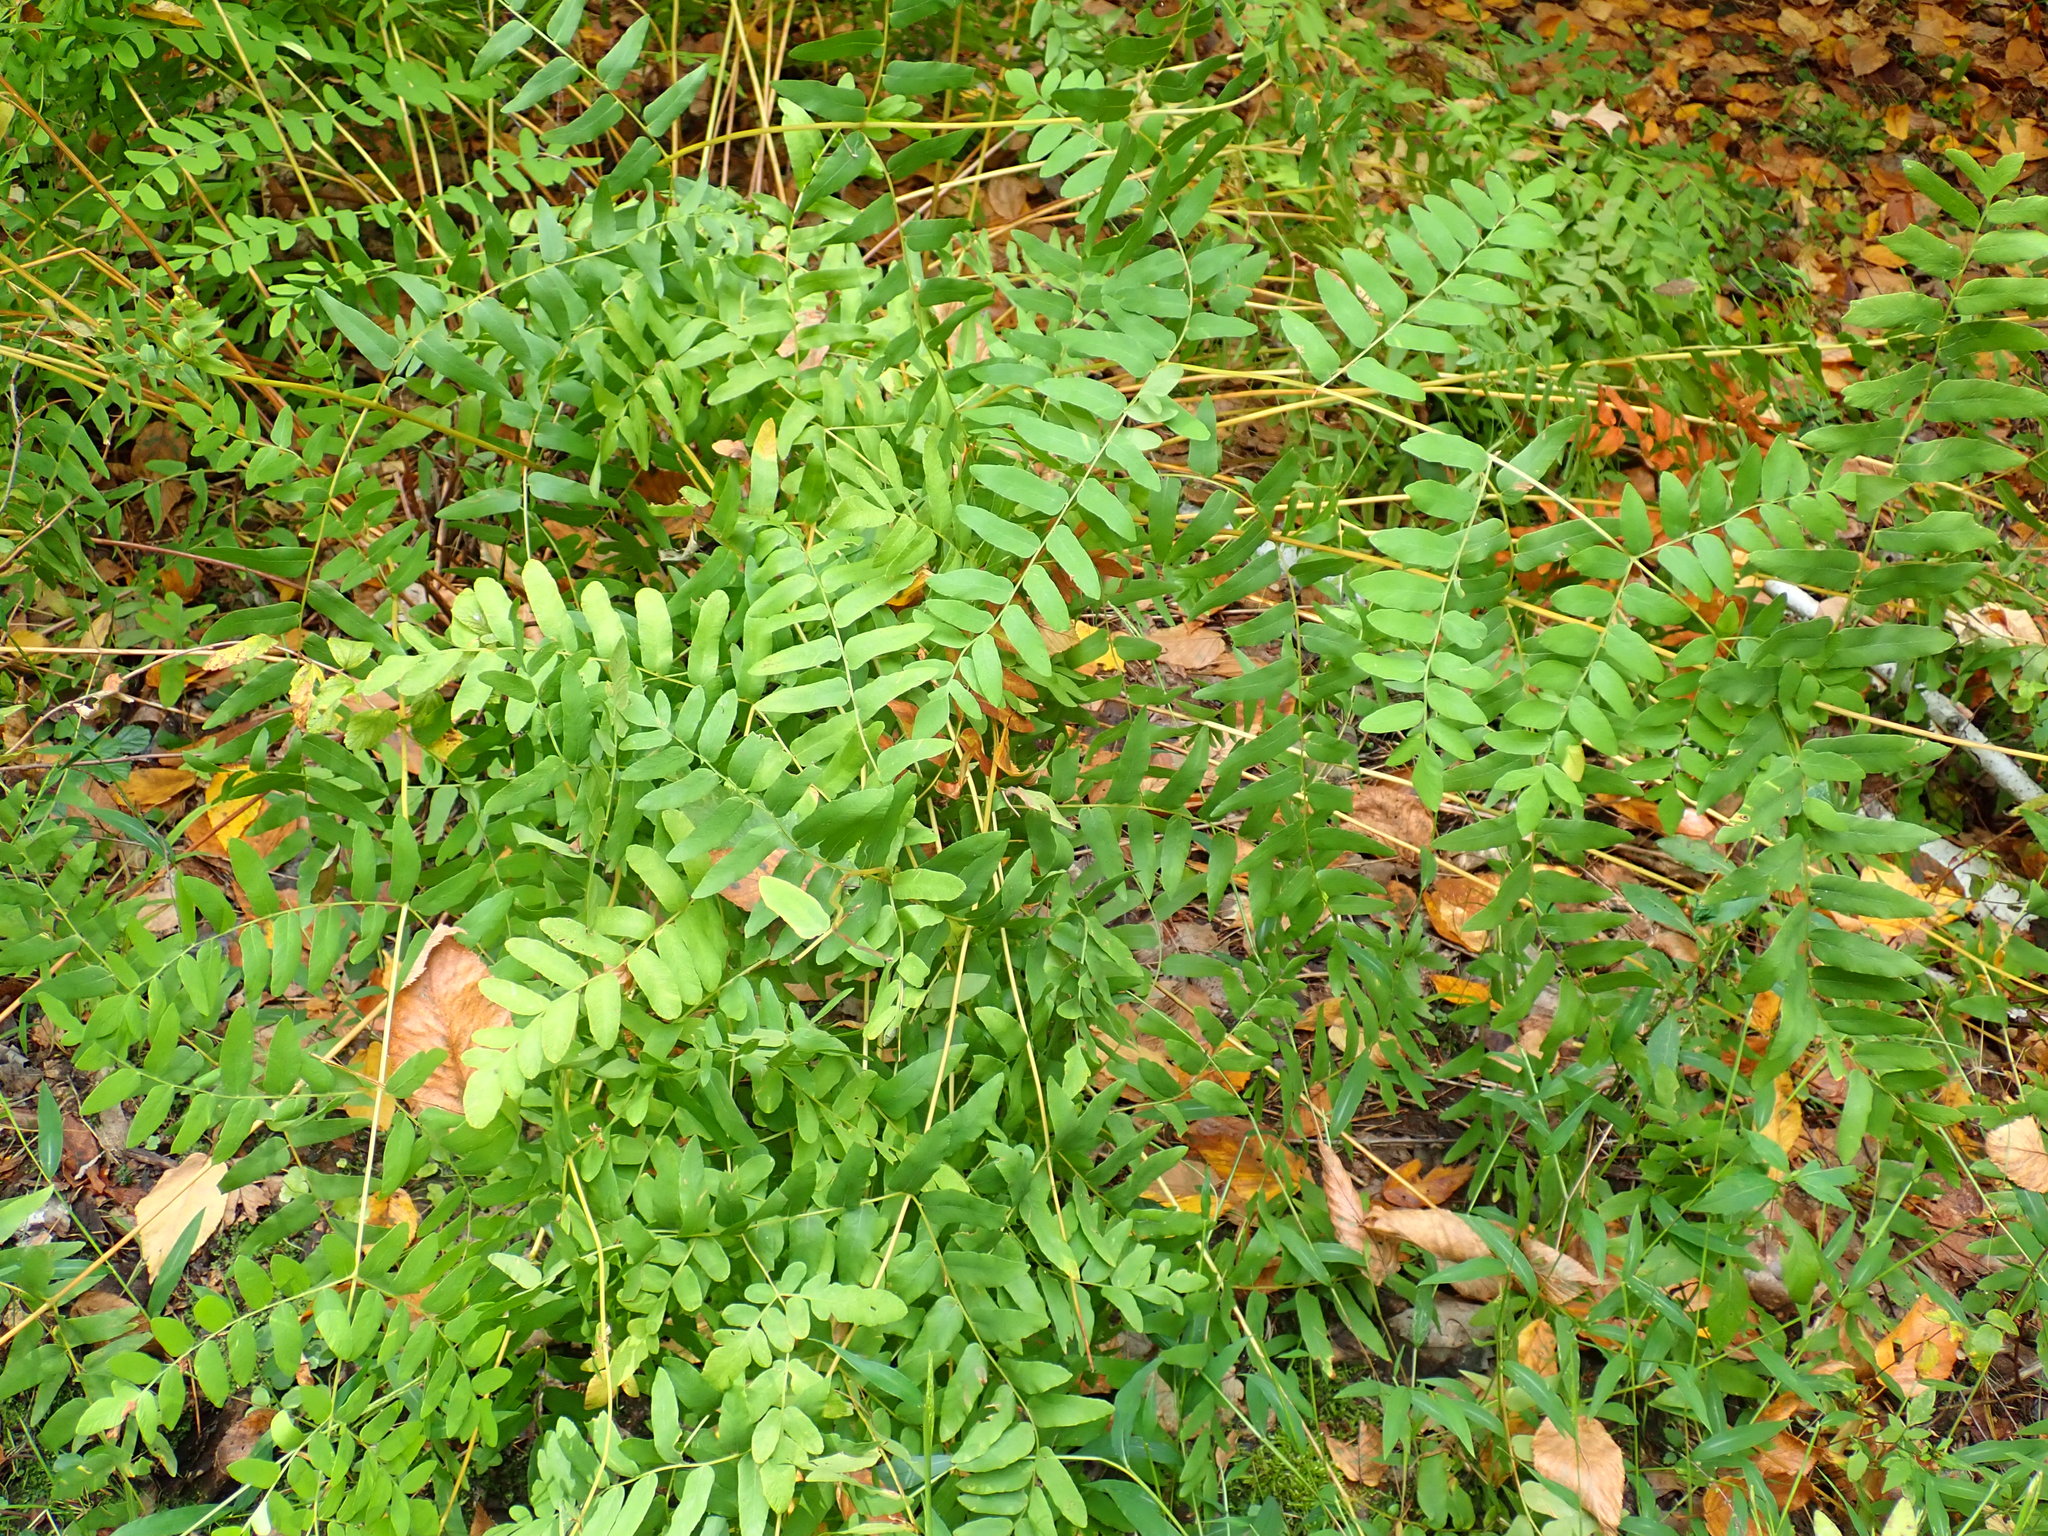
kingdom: Plantae
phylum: Tracheophyta
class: Polypodiopsida
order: Osmundales
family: Osmundaceae
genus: Osmunda
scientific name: Osmunda spectabilis
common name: American royal fern
